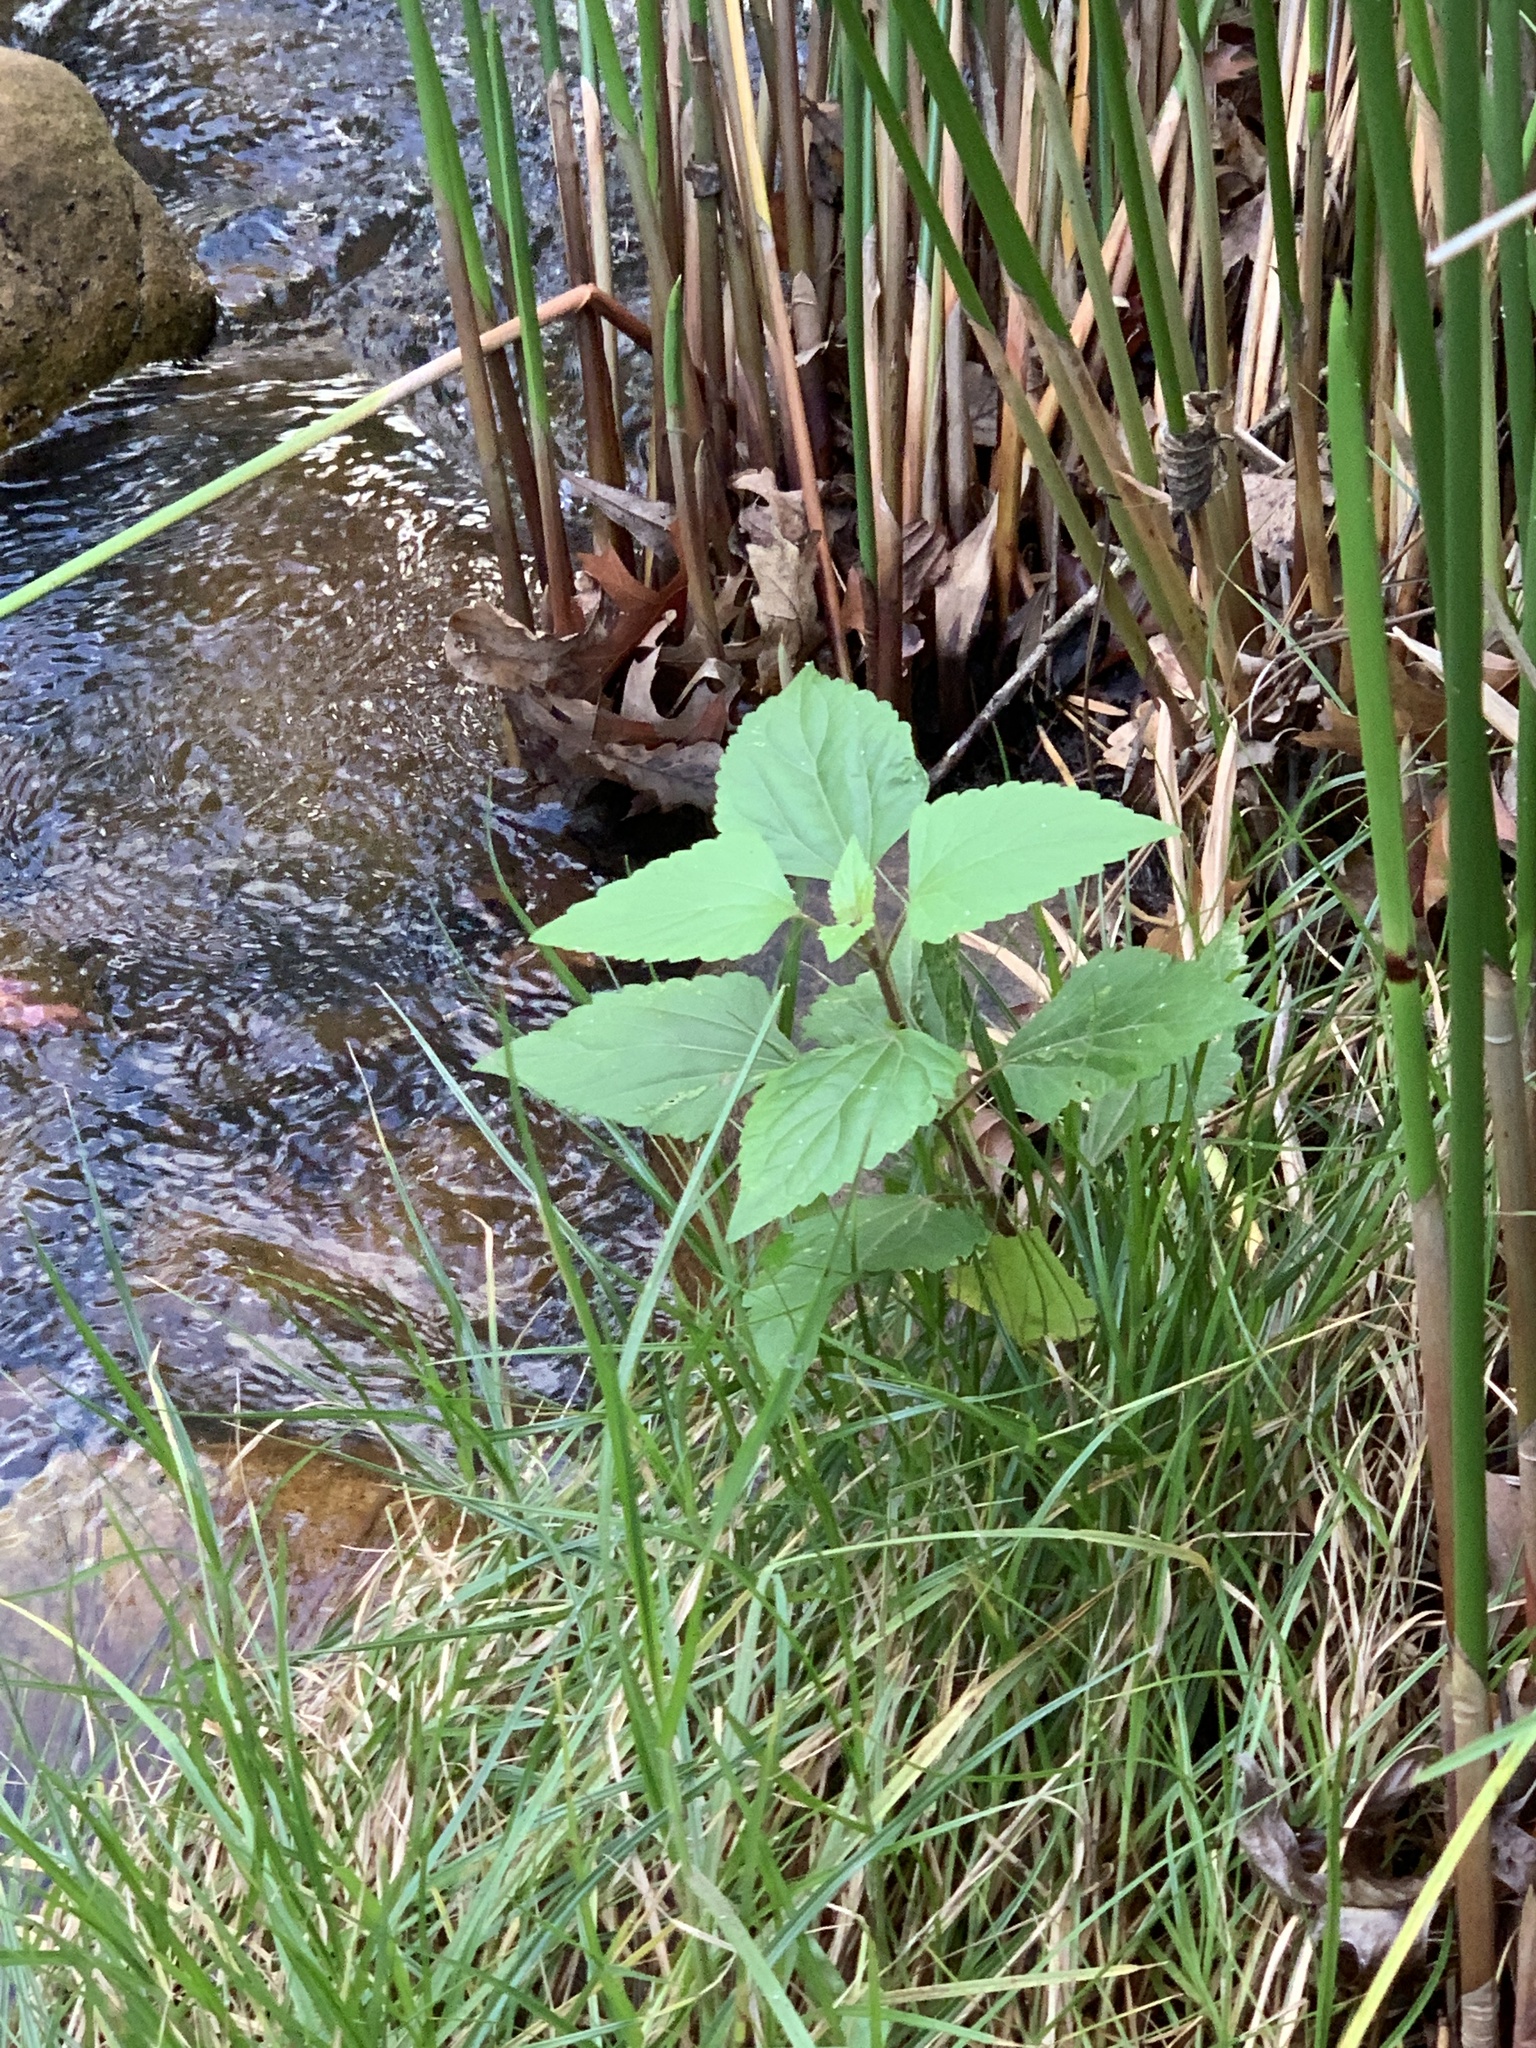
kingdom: Plantae
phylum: Tracheophyta
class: Magnoliopsida
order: Asterales
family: Asteraceae
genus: Ageratina
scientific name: Ageratina adenophora
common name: Sticky snakeroot
